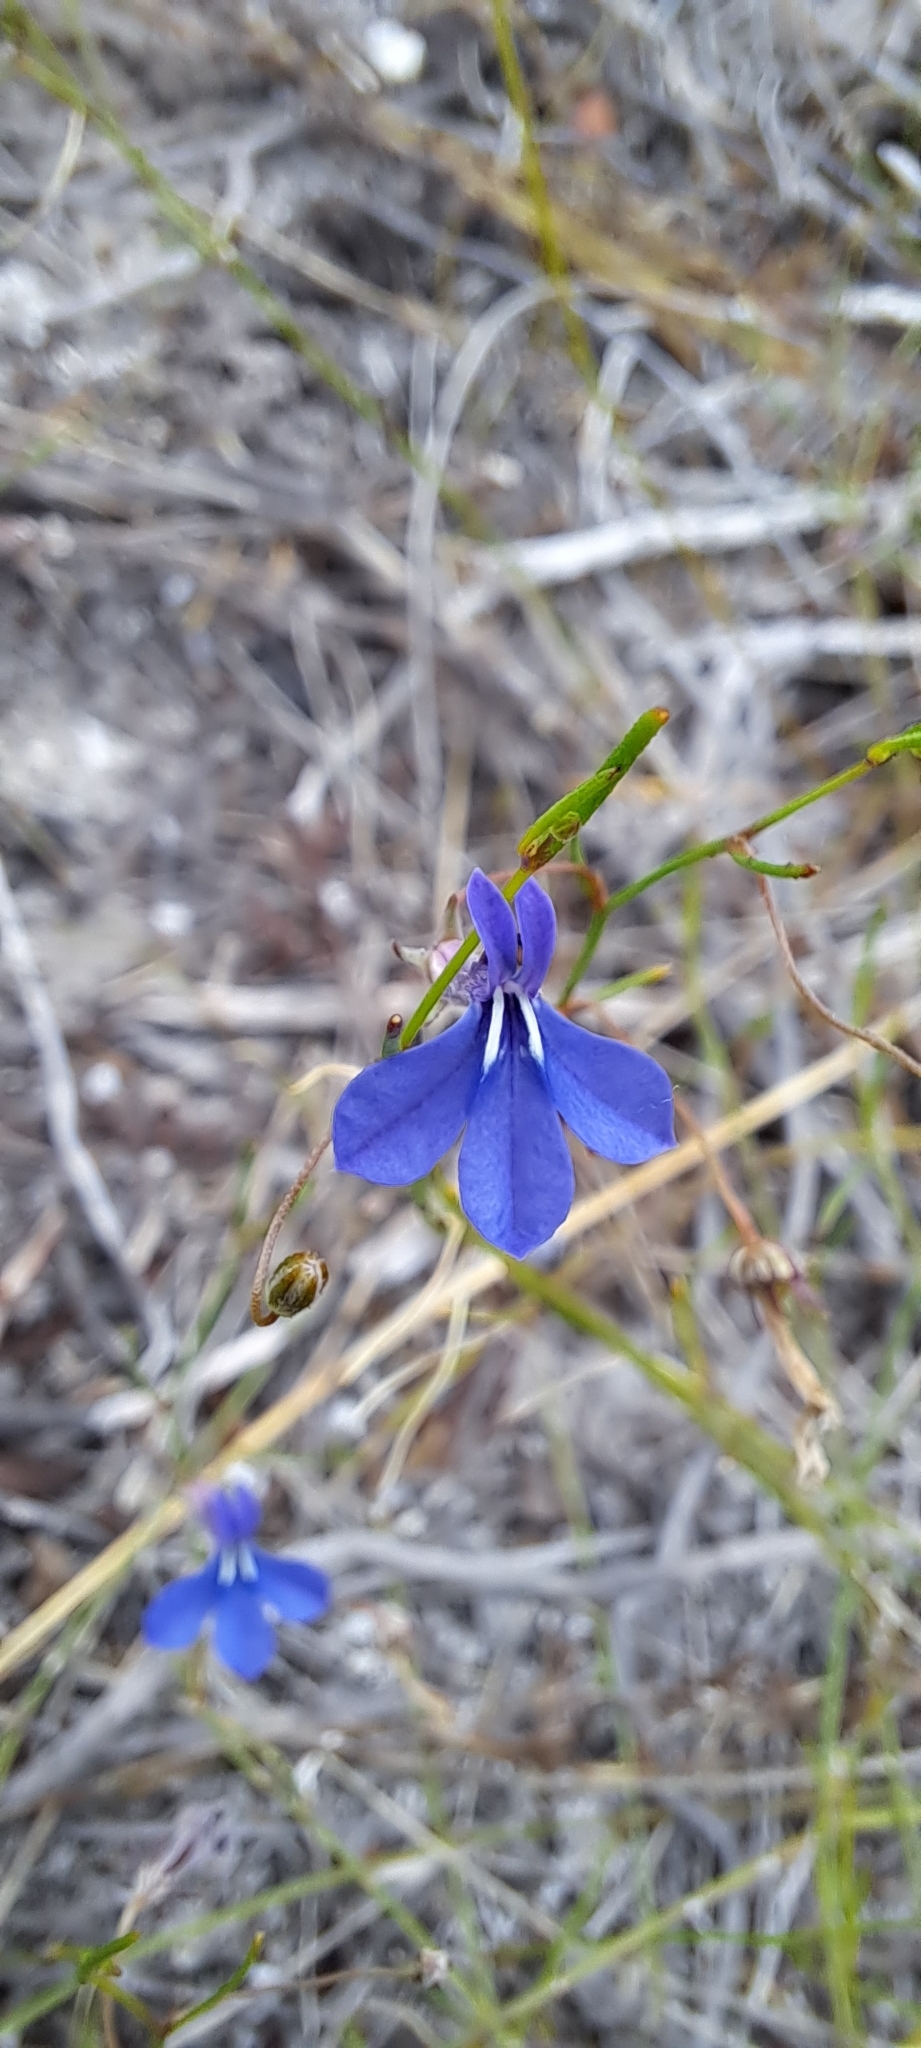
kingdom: Plantae
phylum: Tracheophyta
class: Magnoliopsida
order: Asterales
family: Campanulaceae
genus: Lobelia
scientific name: Lobelia setacea
